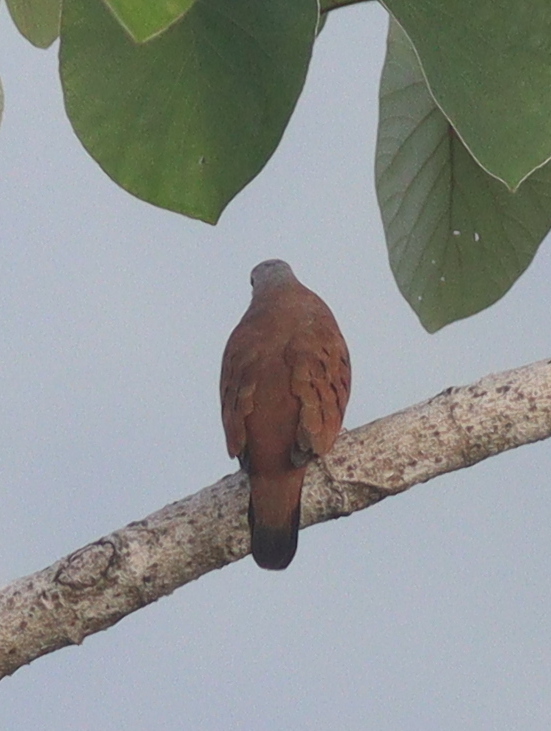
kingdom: Animalia
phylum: Chordata
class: Aves
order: Columbiformes
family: Columbidae
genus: Columbina
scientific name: Columbina talpacoti
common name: Ruddy ground dove
